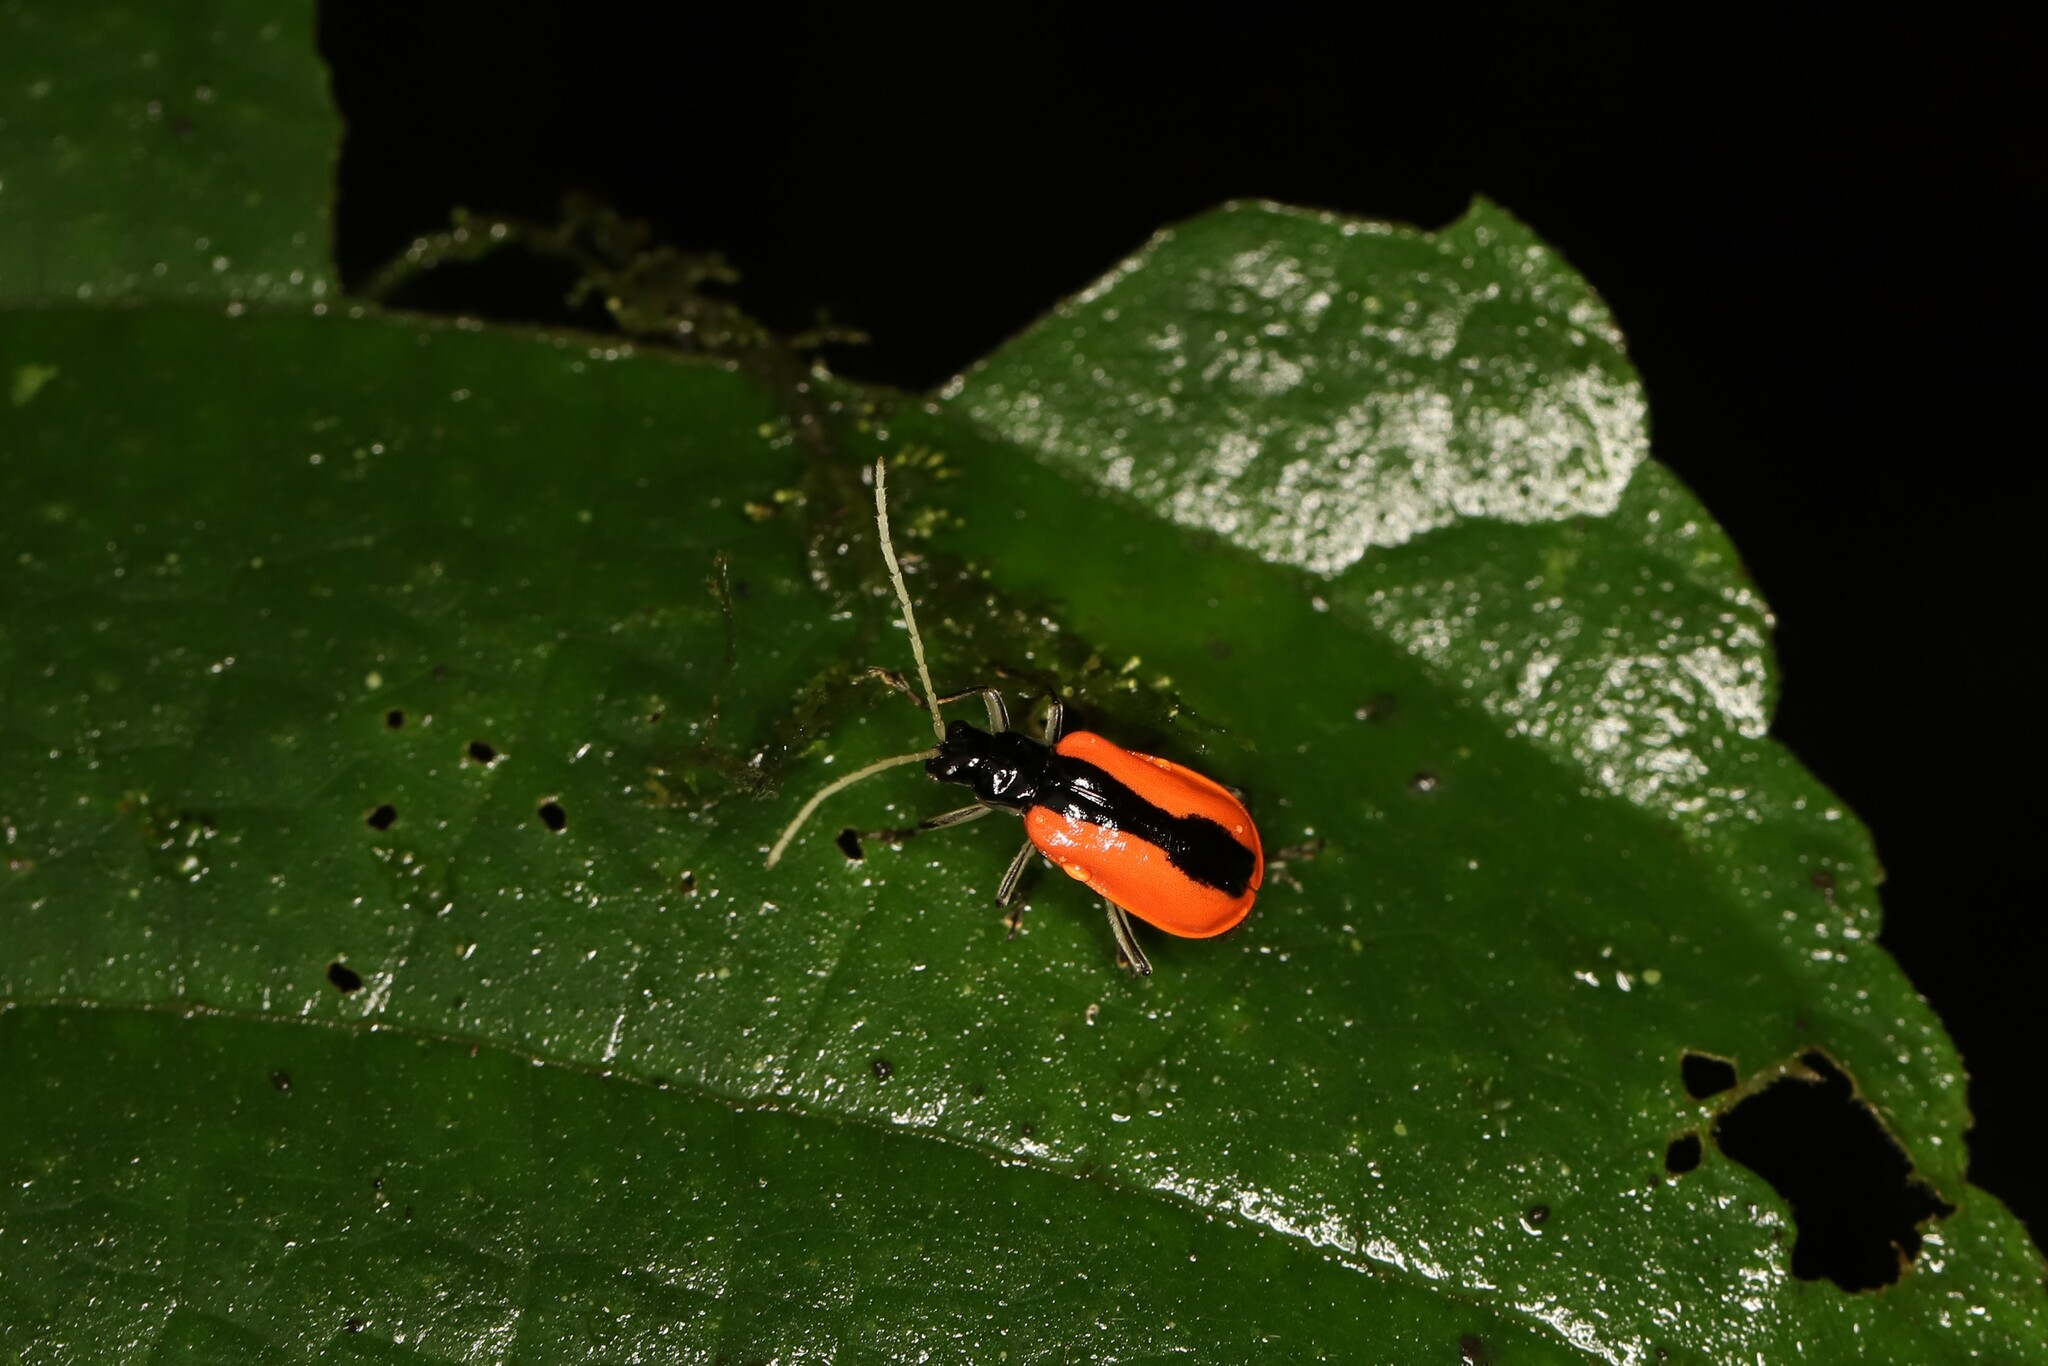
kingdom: Animalia
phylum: Arthropoda
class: Insecta
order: Coleoptera
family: Chrysomelidae
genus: Paratriarius
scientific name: Paratriarius tropica
